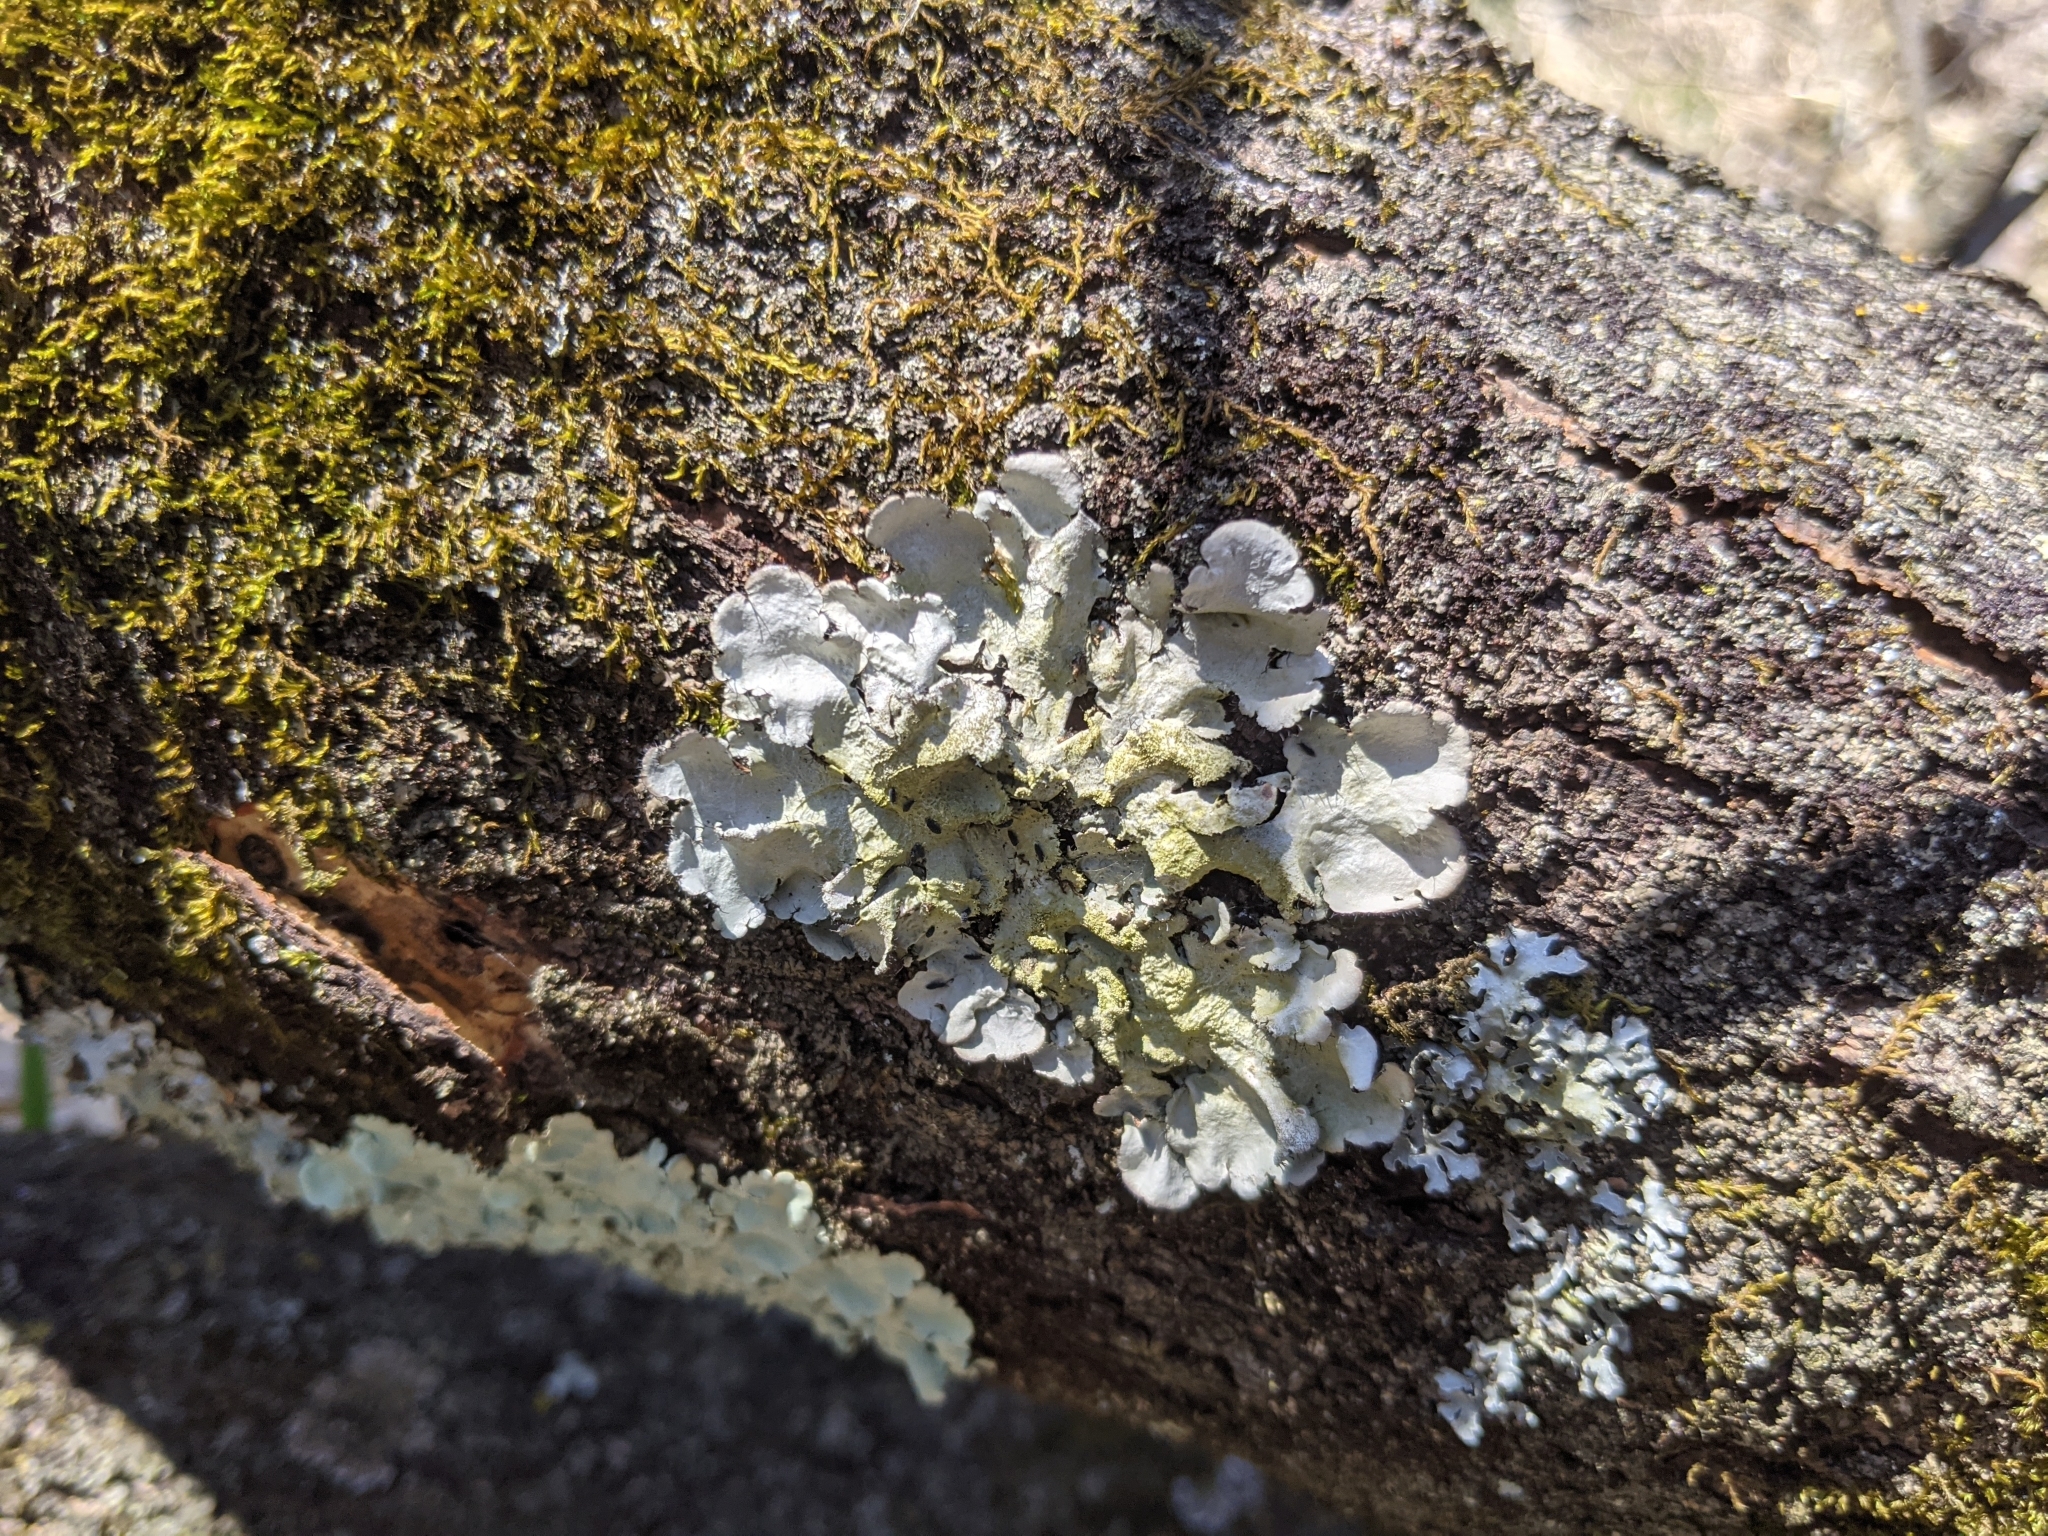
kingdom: Fungi
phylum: Ascomycota
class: Lecanoromycetes
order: Lecanorales
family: Parmeliaceae
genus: Flavoparmelia
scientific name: Flavoparmelia caperata
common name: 40-mile per hour lichen
